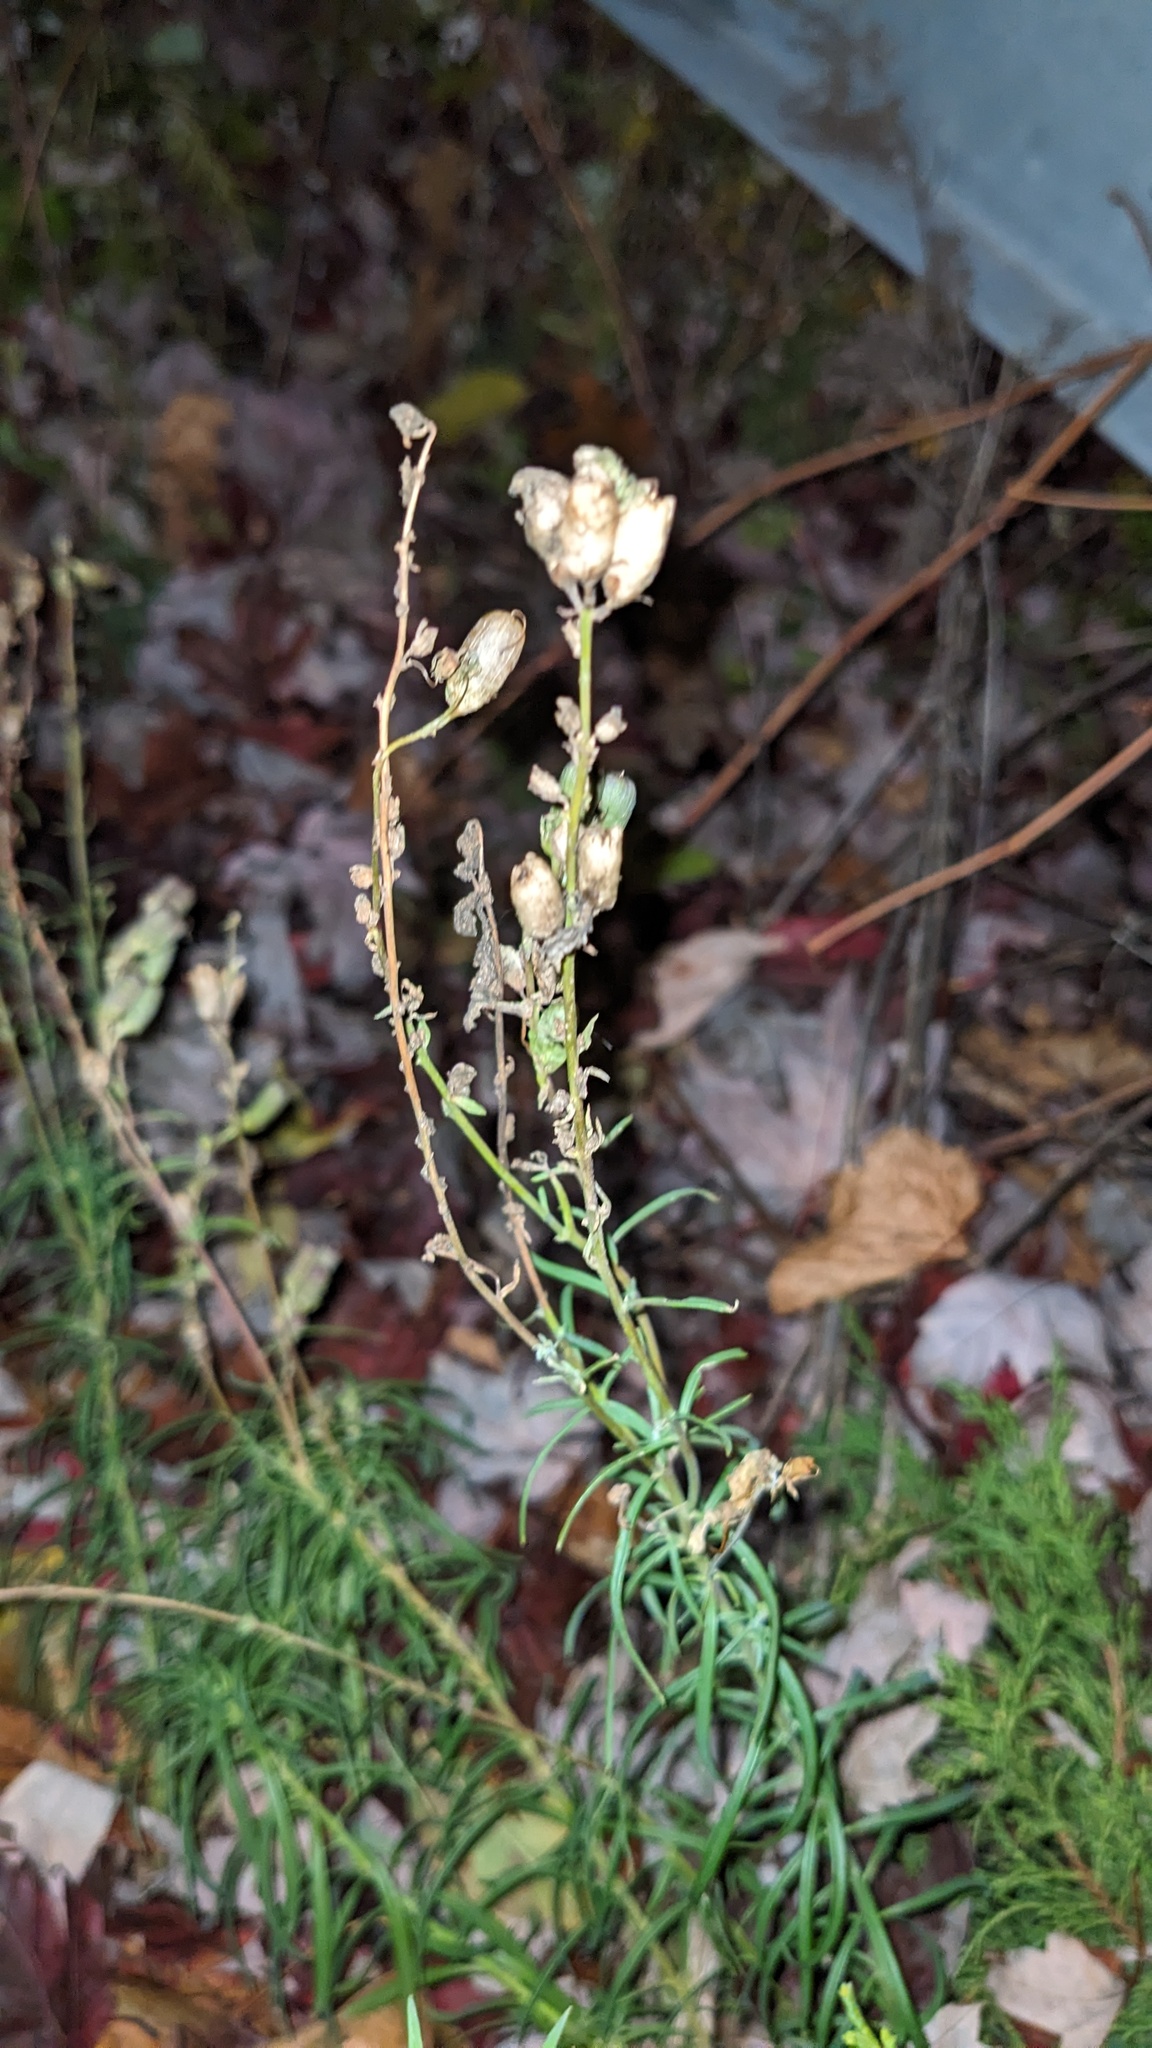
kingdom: Plantae
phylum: Tracheophyta
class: Magnoliopsida
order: Lamiales
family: Plantaginaceae
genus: Linaria
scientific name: Linaria vulgaris
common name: Butter and eggs
